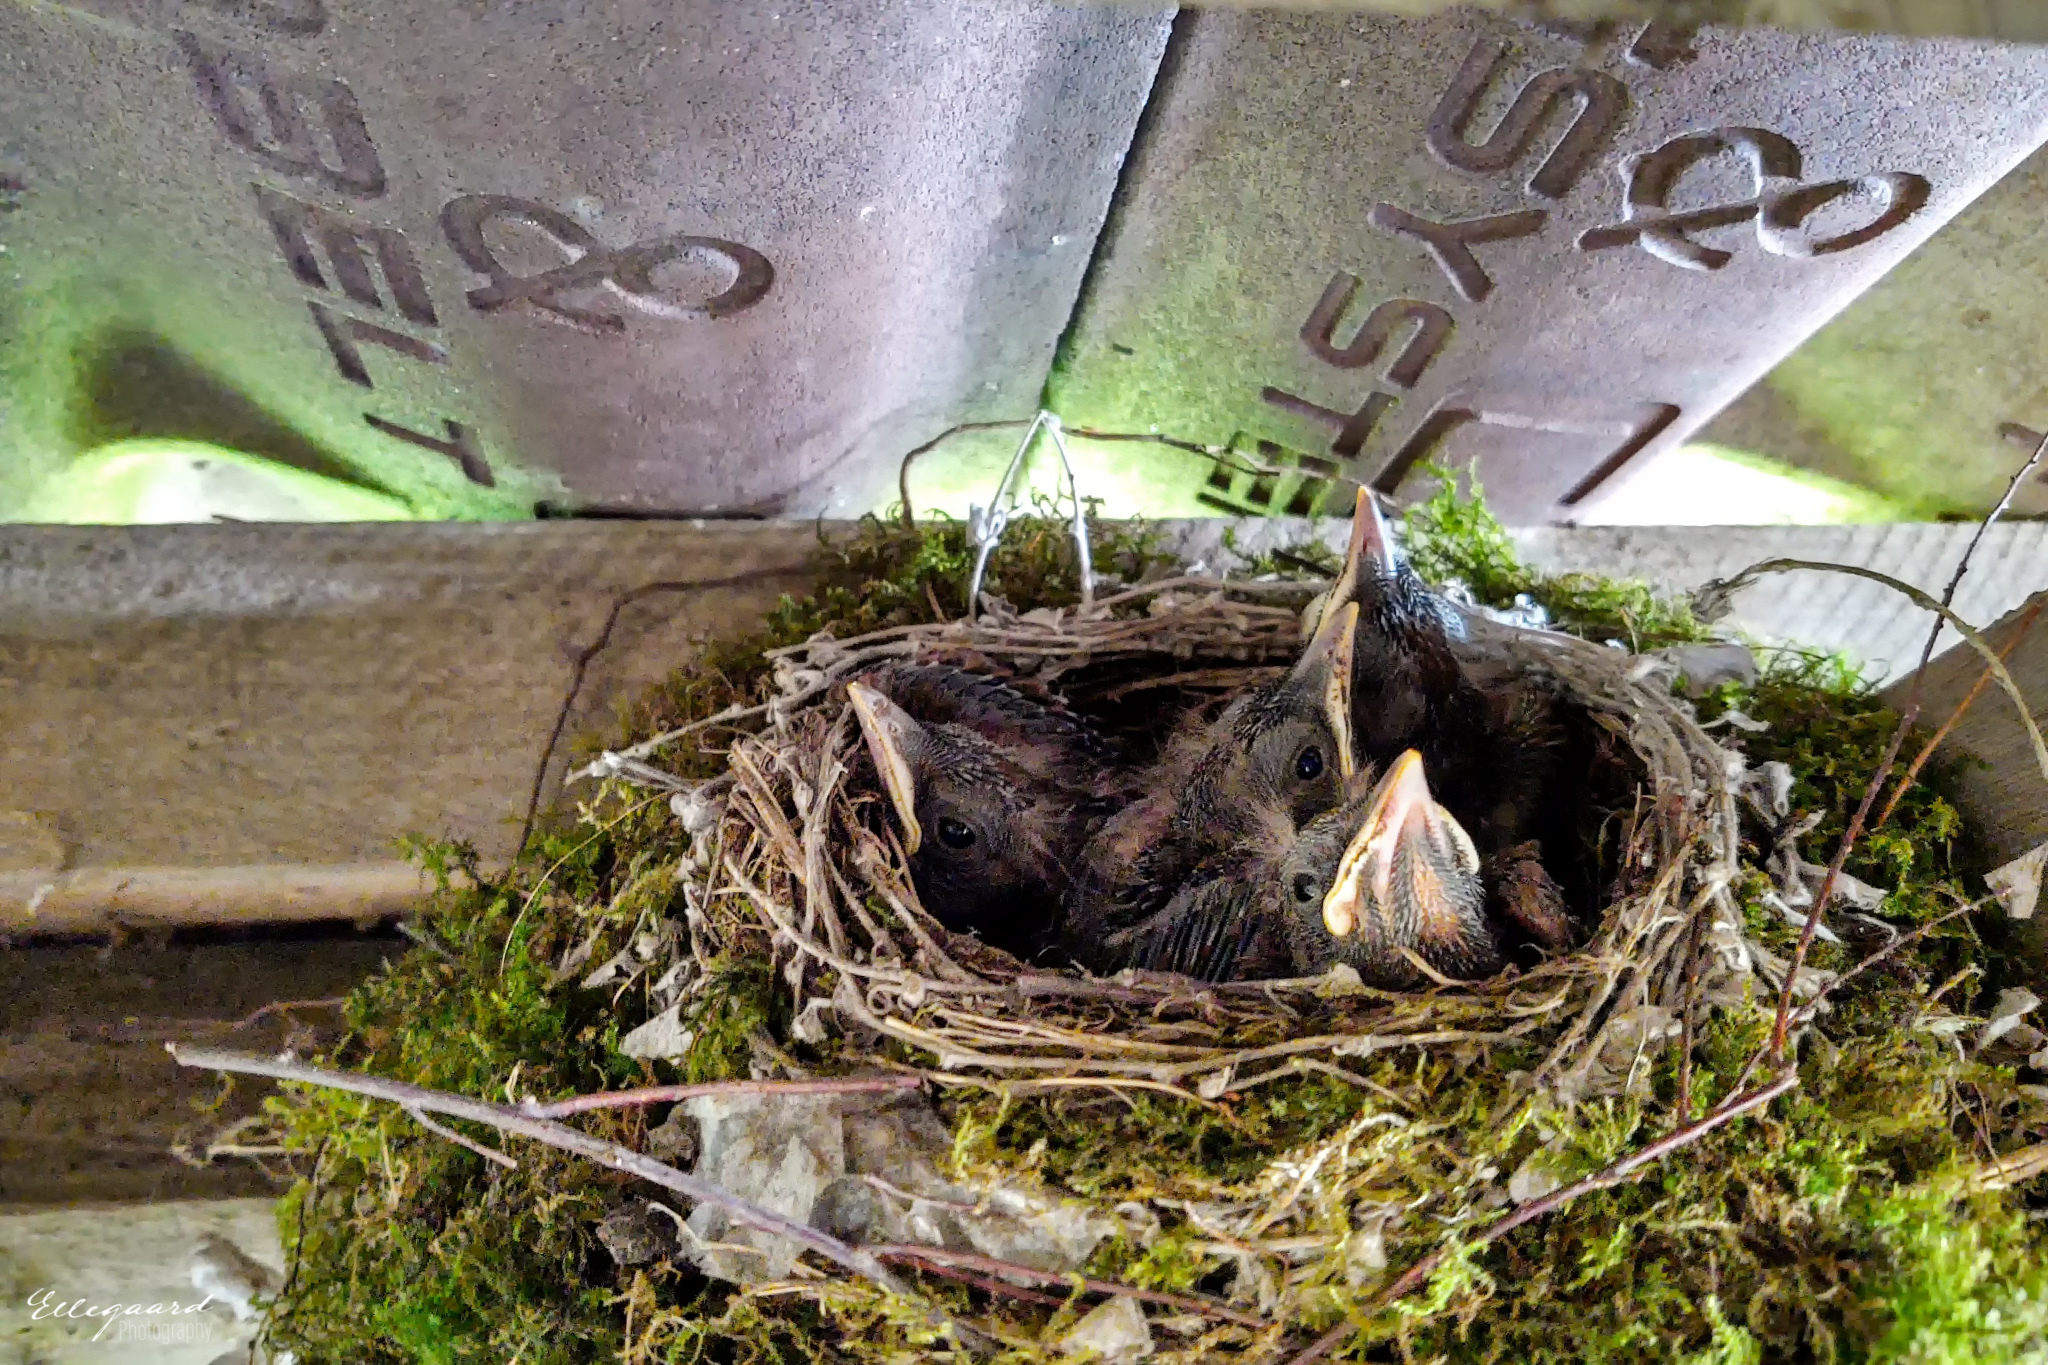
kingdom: Animalia
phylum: Chordata
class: Aves
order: Passeriformes
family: Turdidae
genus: Turdus
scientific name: Turdus merula
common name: Common blackbird
